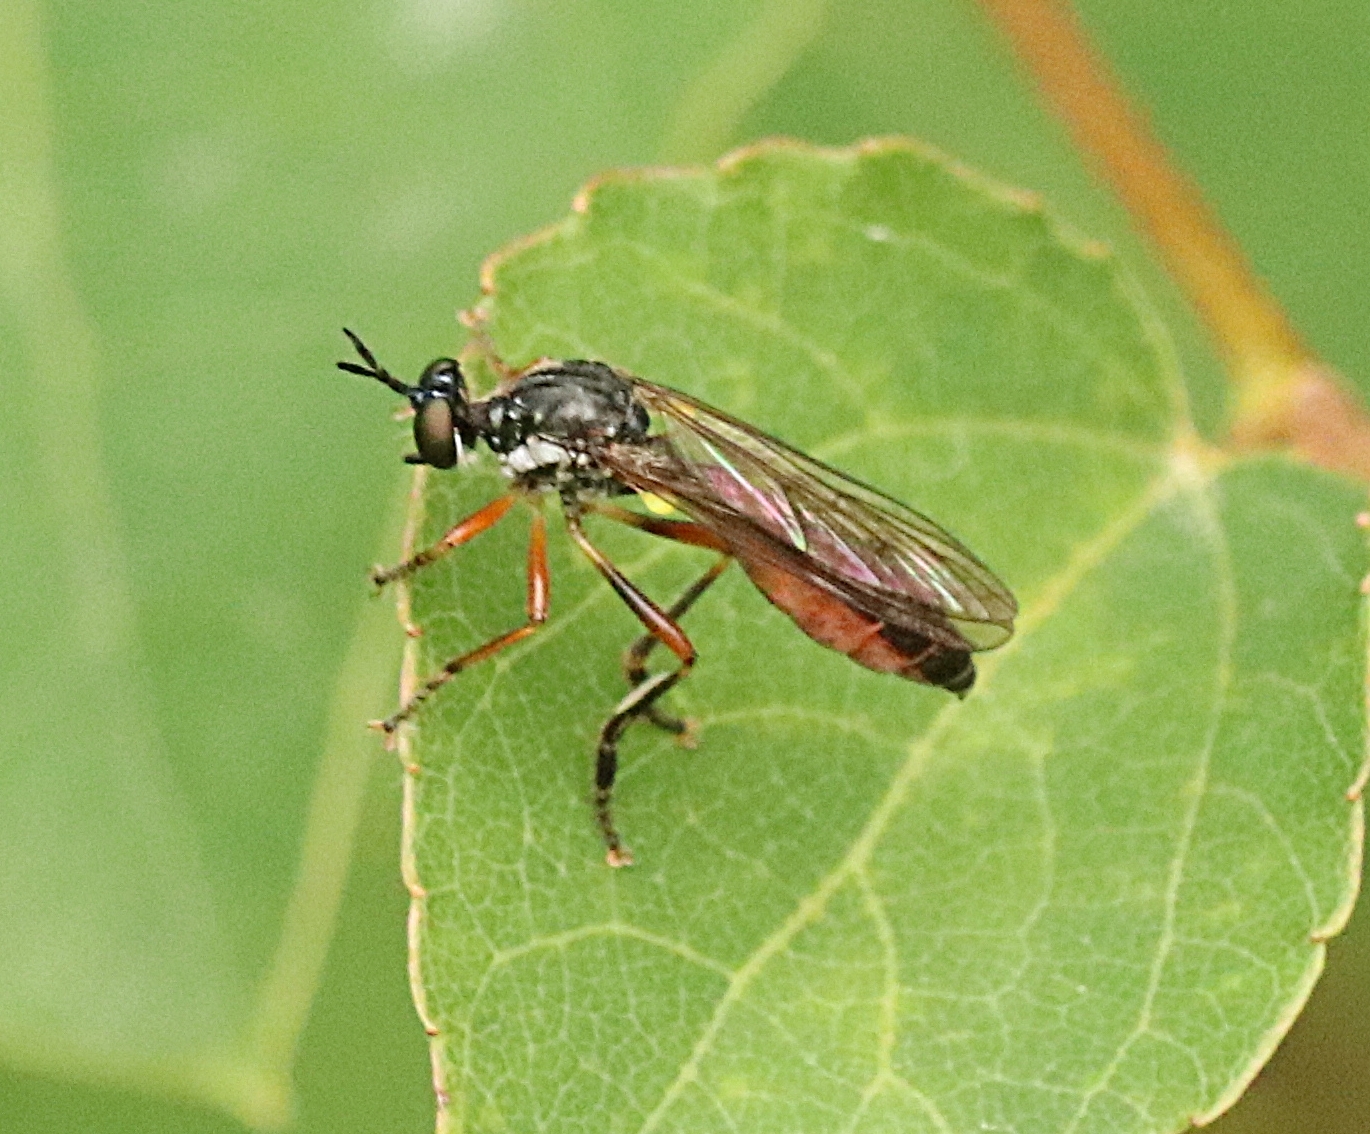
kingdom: Animalia
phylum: Arthropoda
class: Insecta
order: Diptera
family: Asilidae
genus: Dioctria
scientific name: Dioctria hyalipennis
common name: Stripe-legged robberfly
